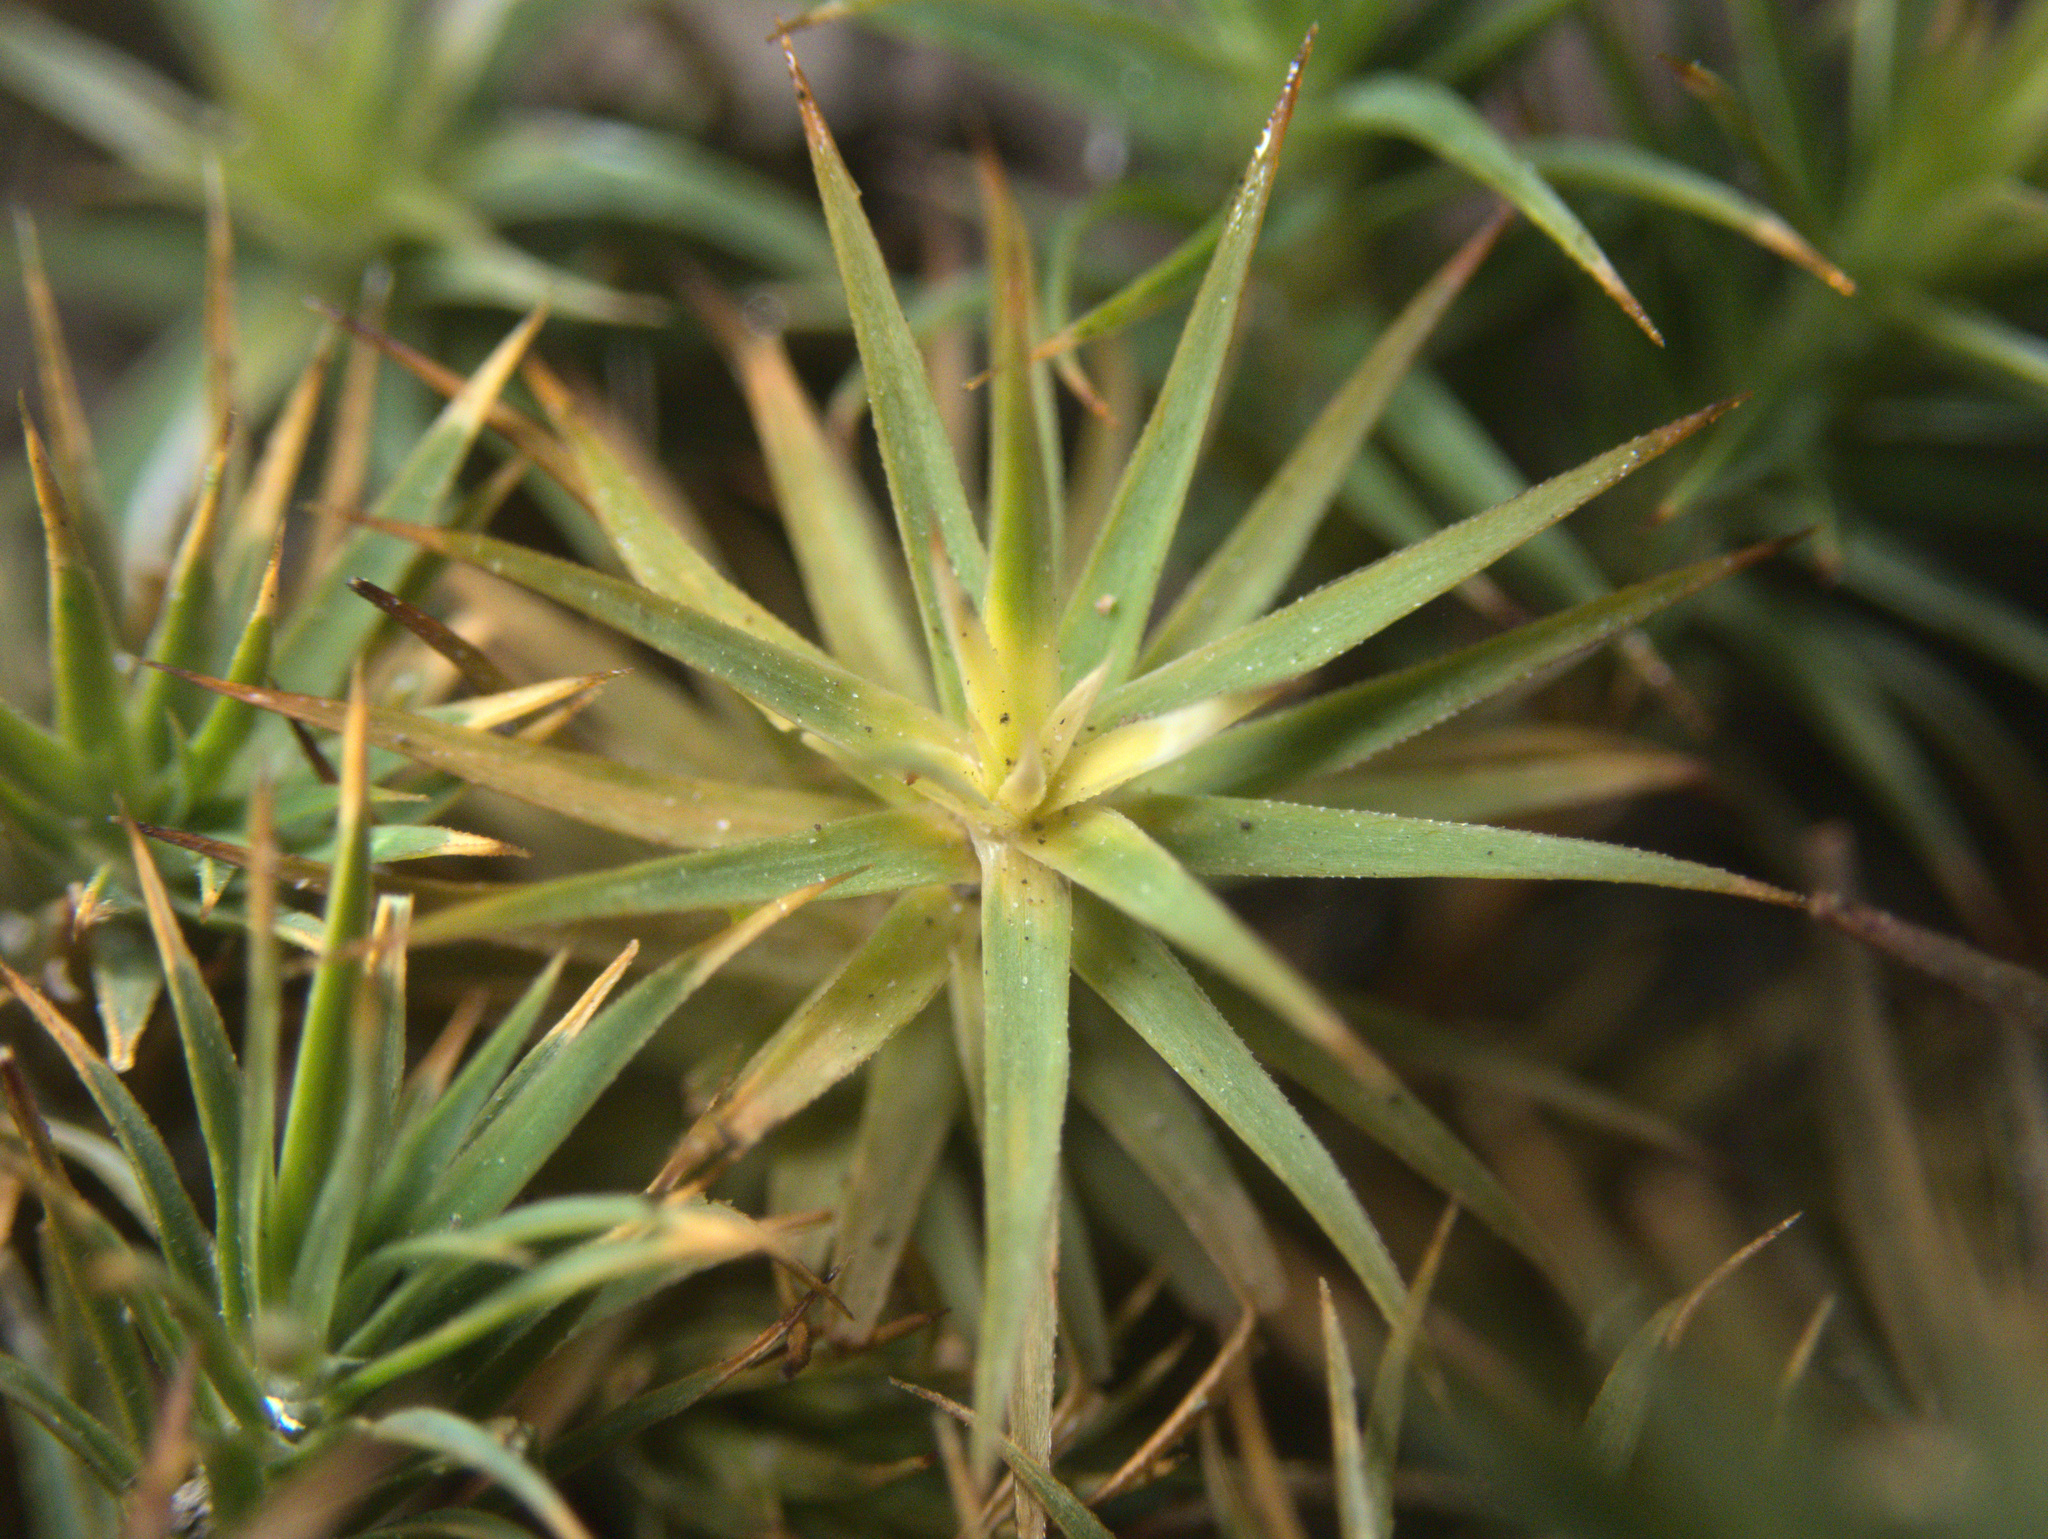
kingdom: Plantae
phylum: Bryophyta
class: Polytrichopsida
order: Polytrichales
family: Polytrichaceae
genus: Polytrichadelphus
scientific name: Polytrichadelphus magellanicus
